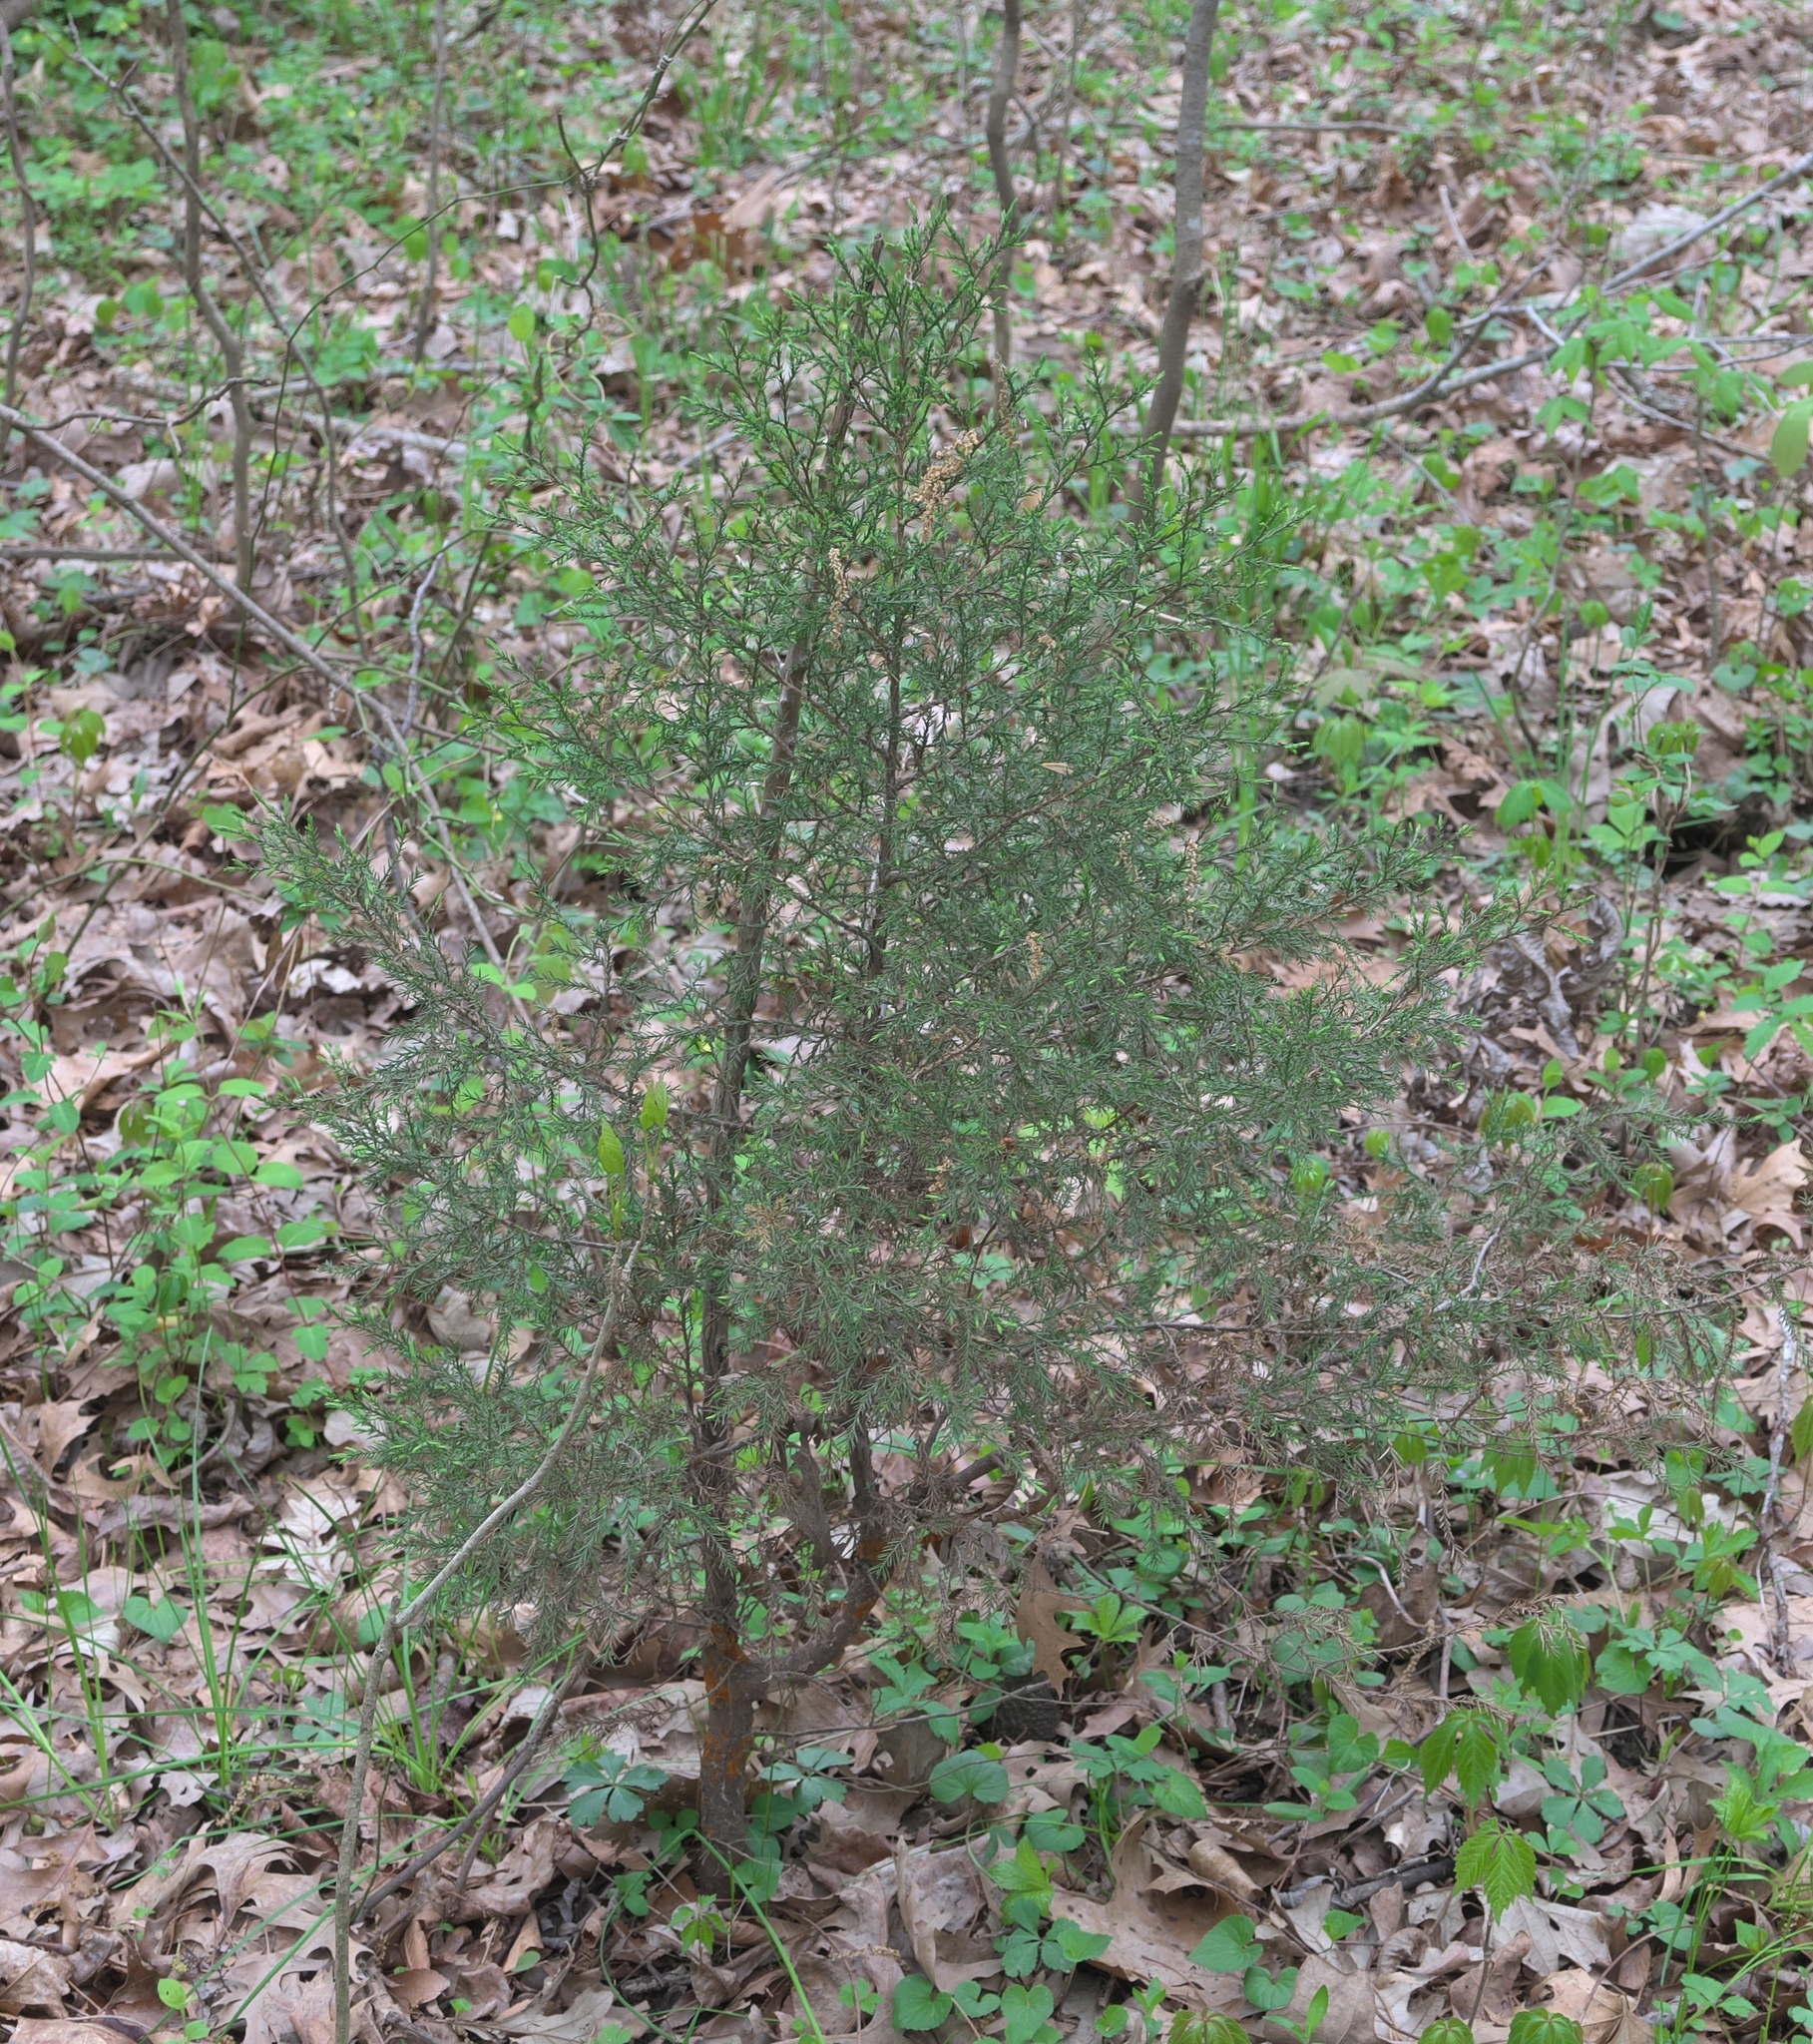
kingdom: Plantae
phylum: Tracheophyta
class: Pinopsida
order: Pinales
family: Cupressaceae
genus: Juniperus
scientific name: Juniperus virginiana
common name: Red juniper
